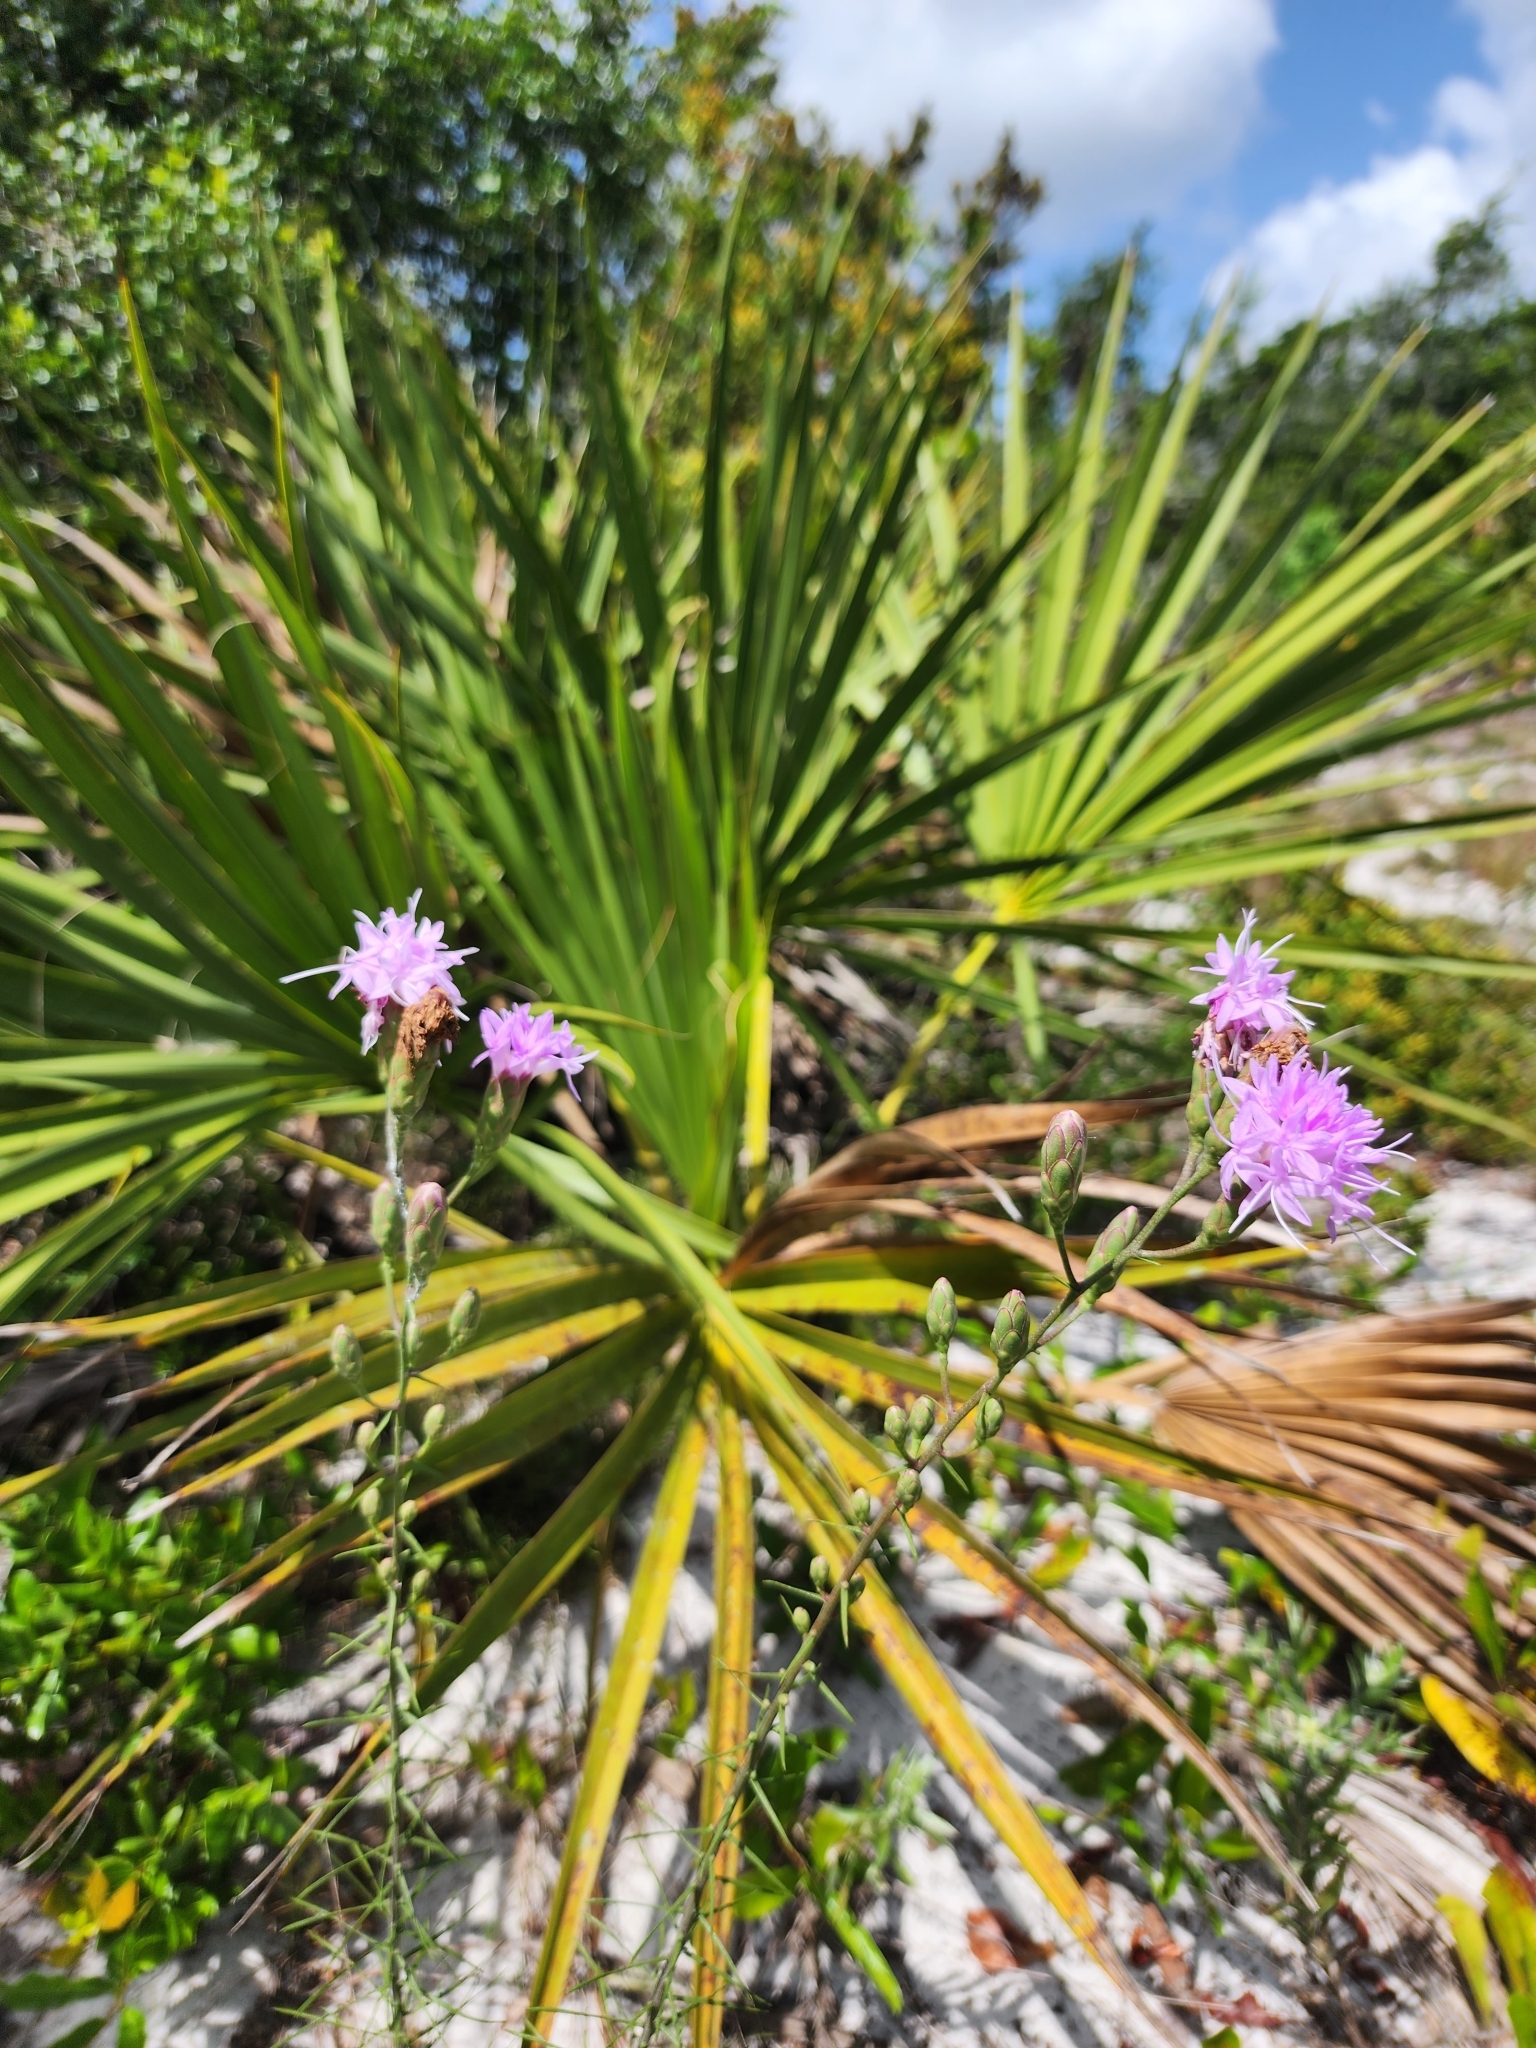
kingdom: Plantae
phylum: Tracheophyta
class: Magnoliopsida
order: Asterales
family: Asteraceae
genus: Liatris
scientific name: Liatris ohlingerae
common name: Scrub blazingstar
